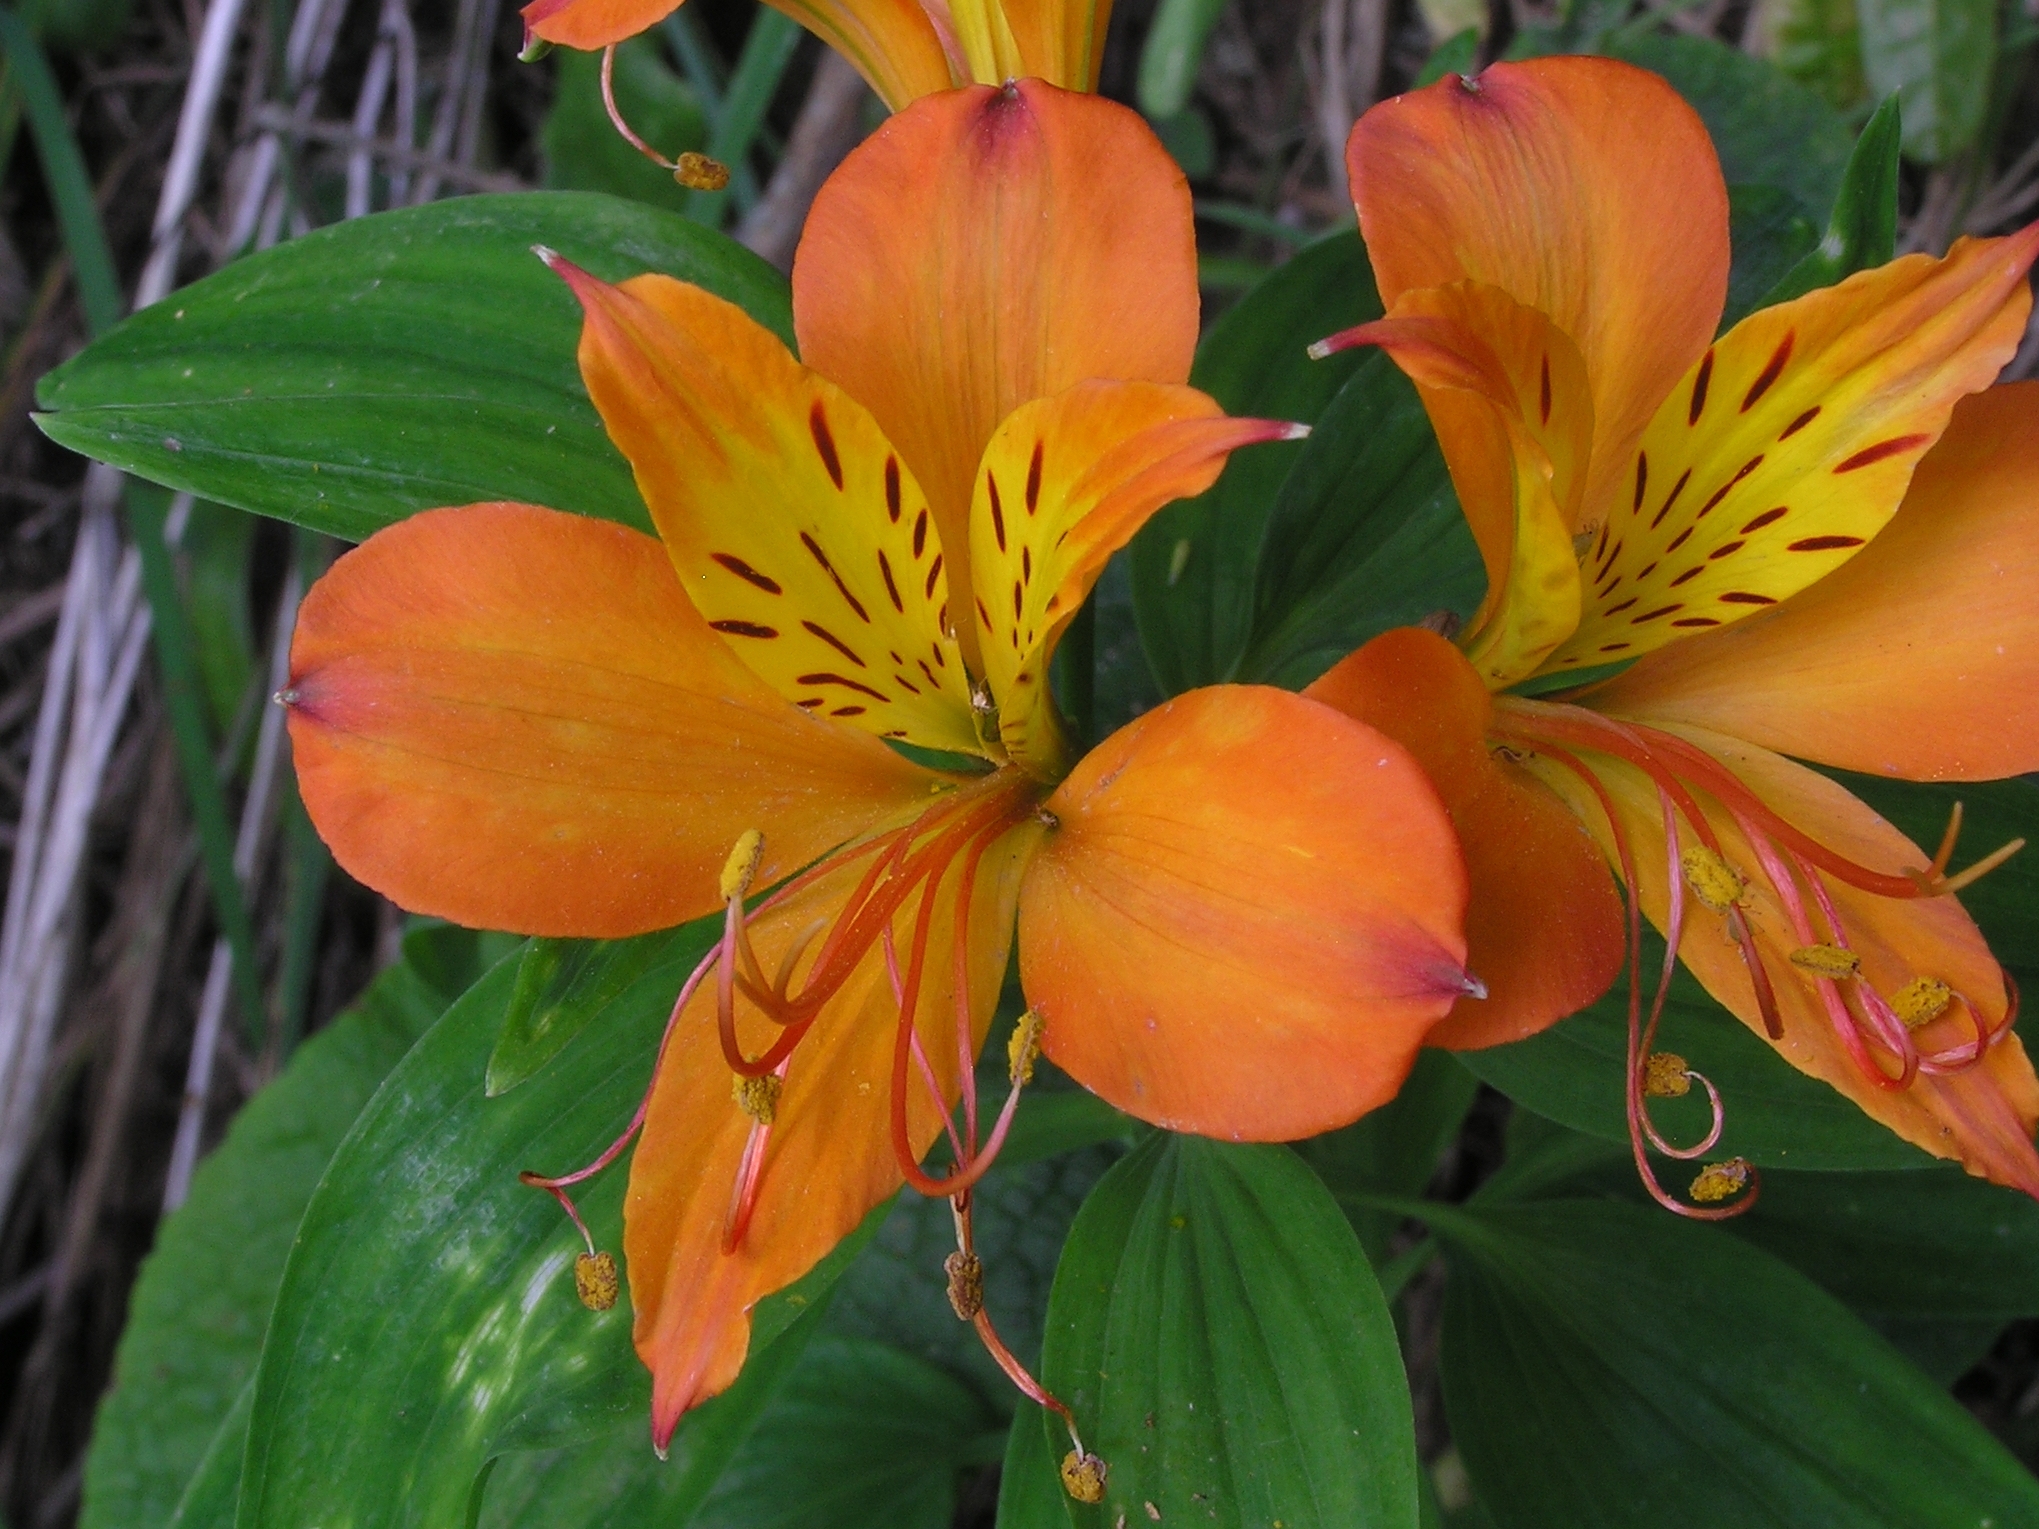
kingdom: Plantae
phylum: Tracheophyta
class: Liliopsida
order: Liliales
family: Alstroemeriaceae
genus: Alstroemeria
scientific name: Alstroemeria aurea
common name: Peruvian lily
